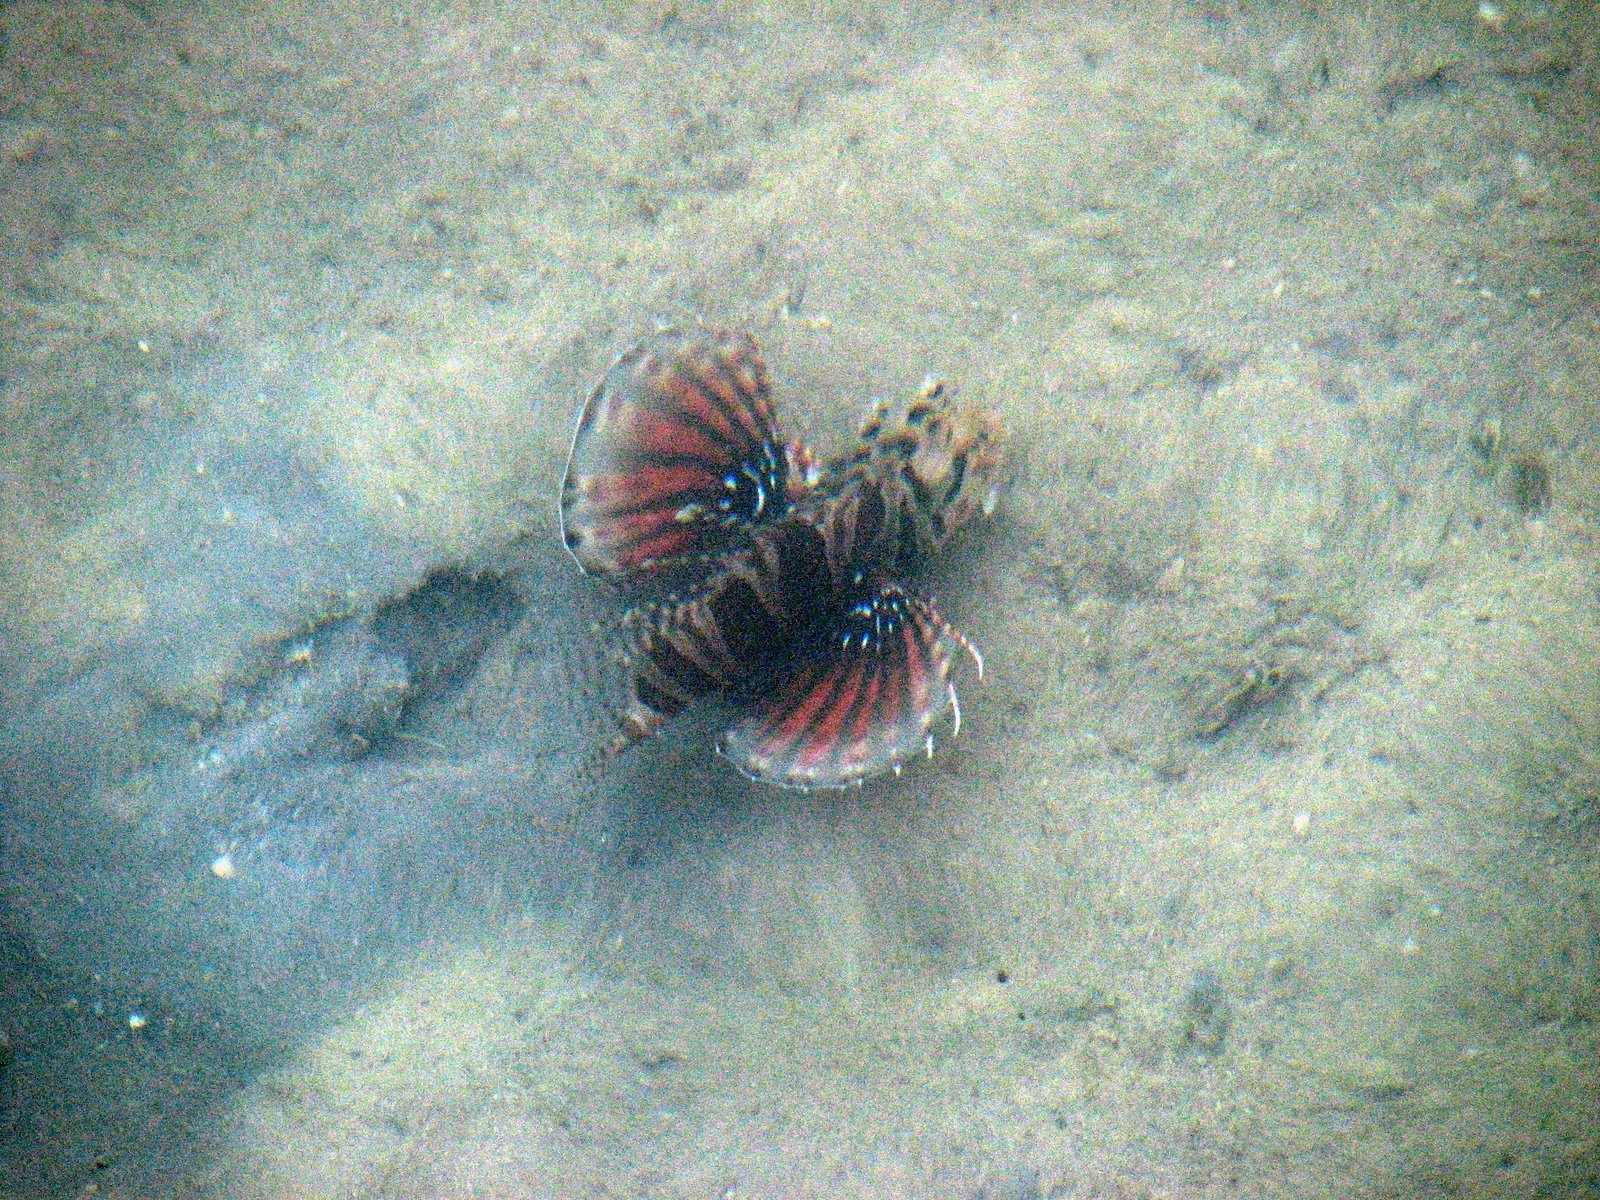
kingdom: Animalia
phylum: Chordata
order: Scorpaeniformes
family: Scorpaenidae
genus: Dendrochirus
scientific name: Dendrochirus zebra
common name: Zebra lionfish
